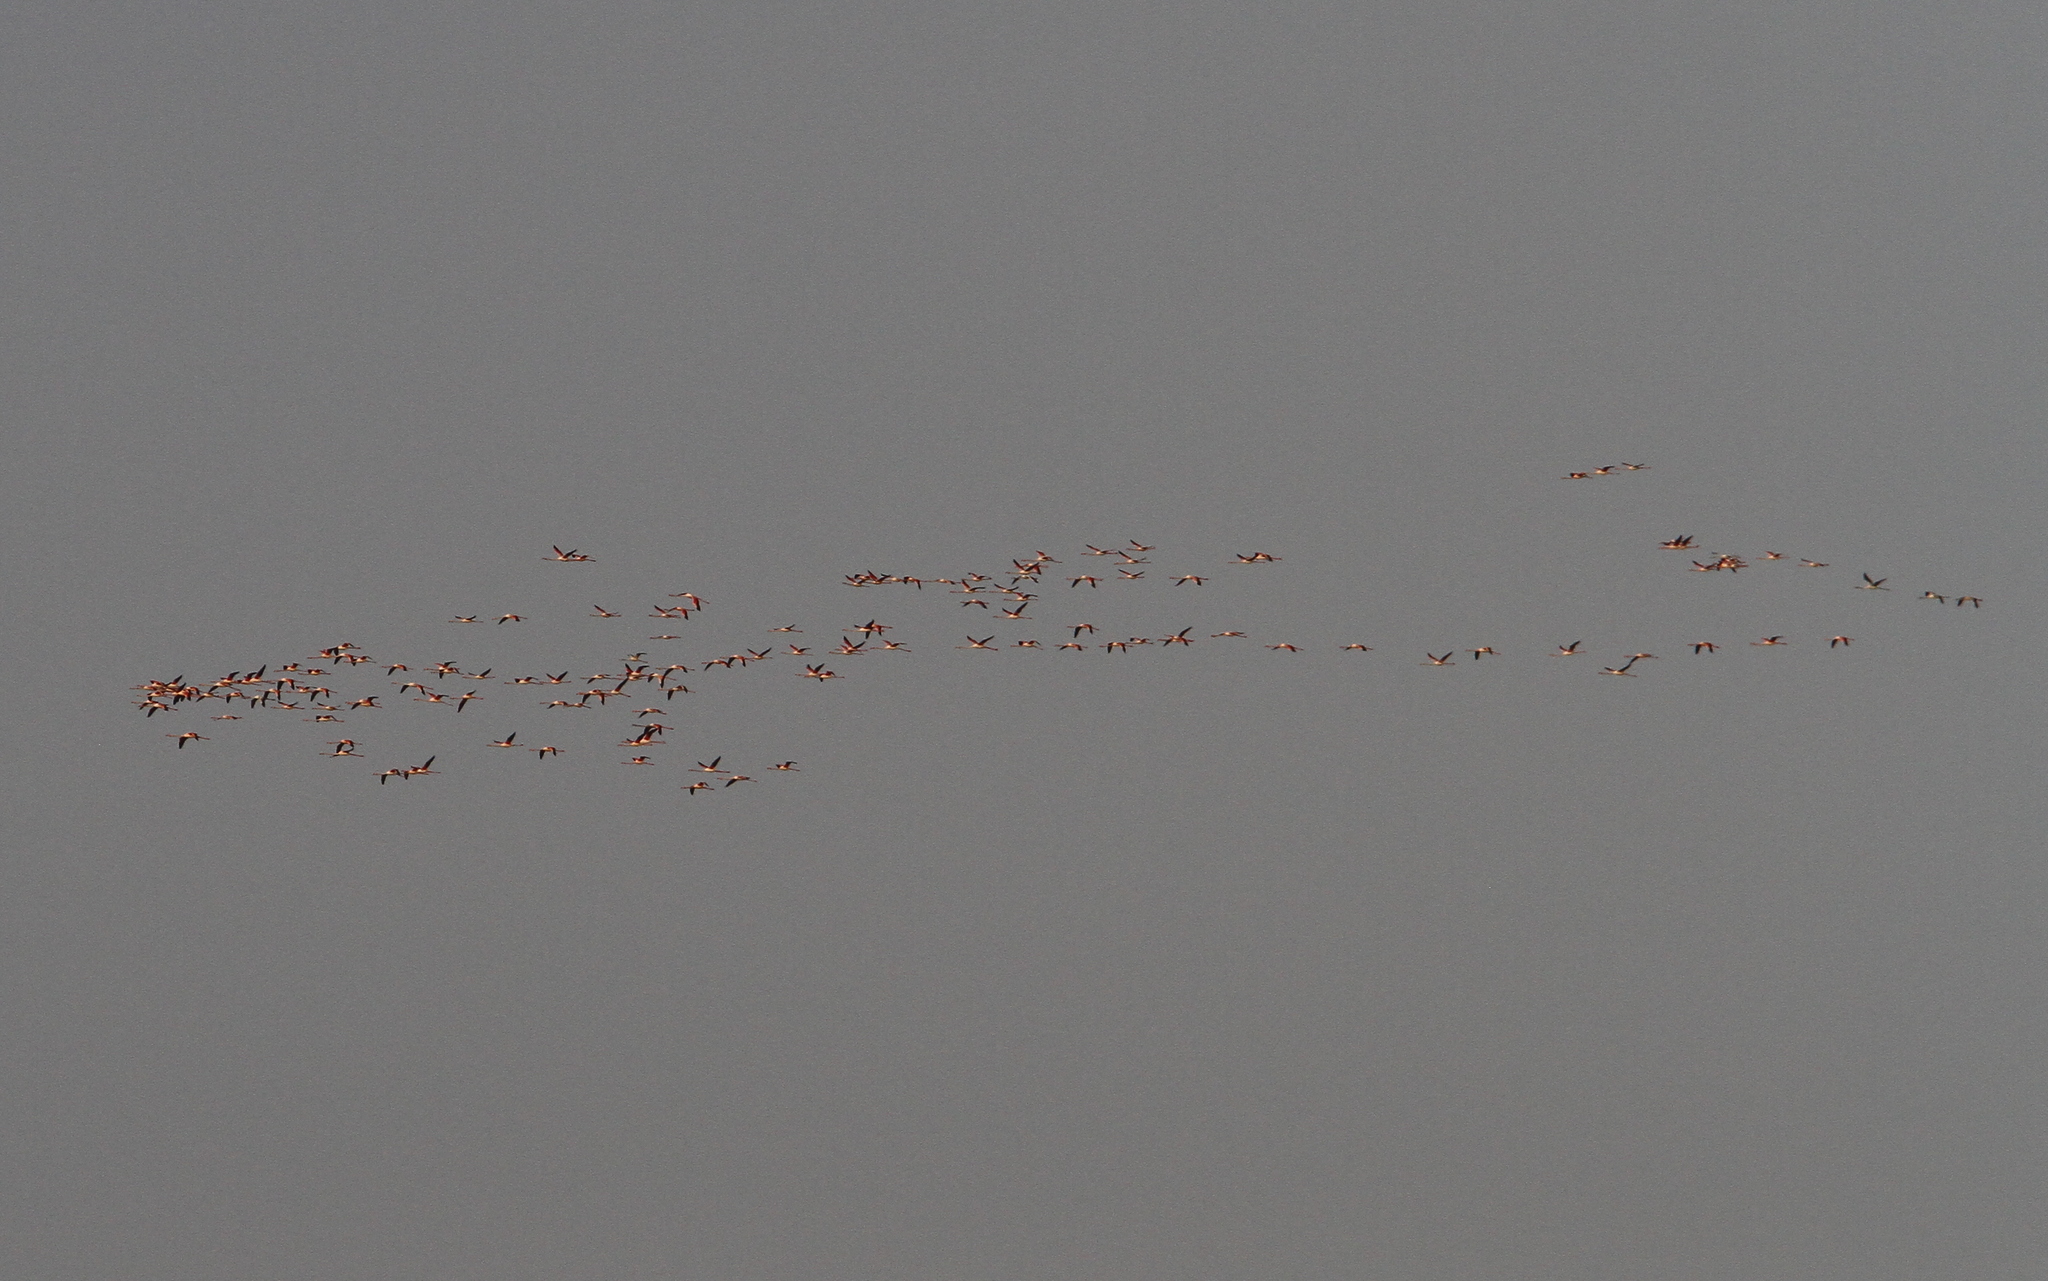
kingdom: Animalia
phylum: Chordata
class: Aves
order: Phoenicopteriformes
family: Phoenicopteridae
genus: Phoenicopterus
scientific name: Phoenicopterus roseus
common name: Greater flamingo
